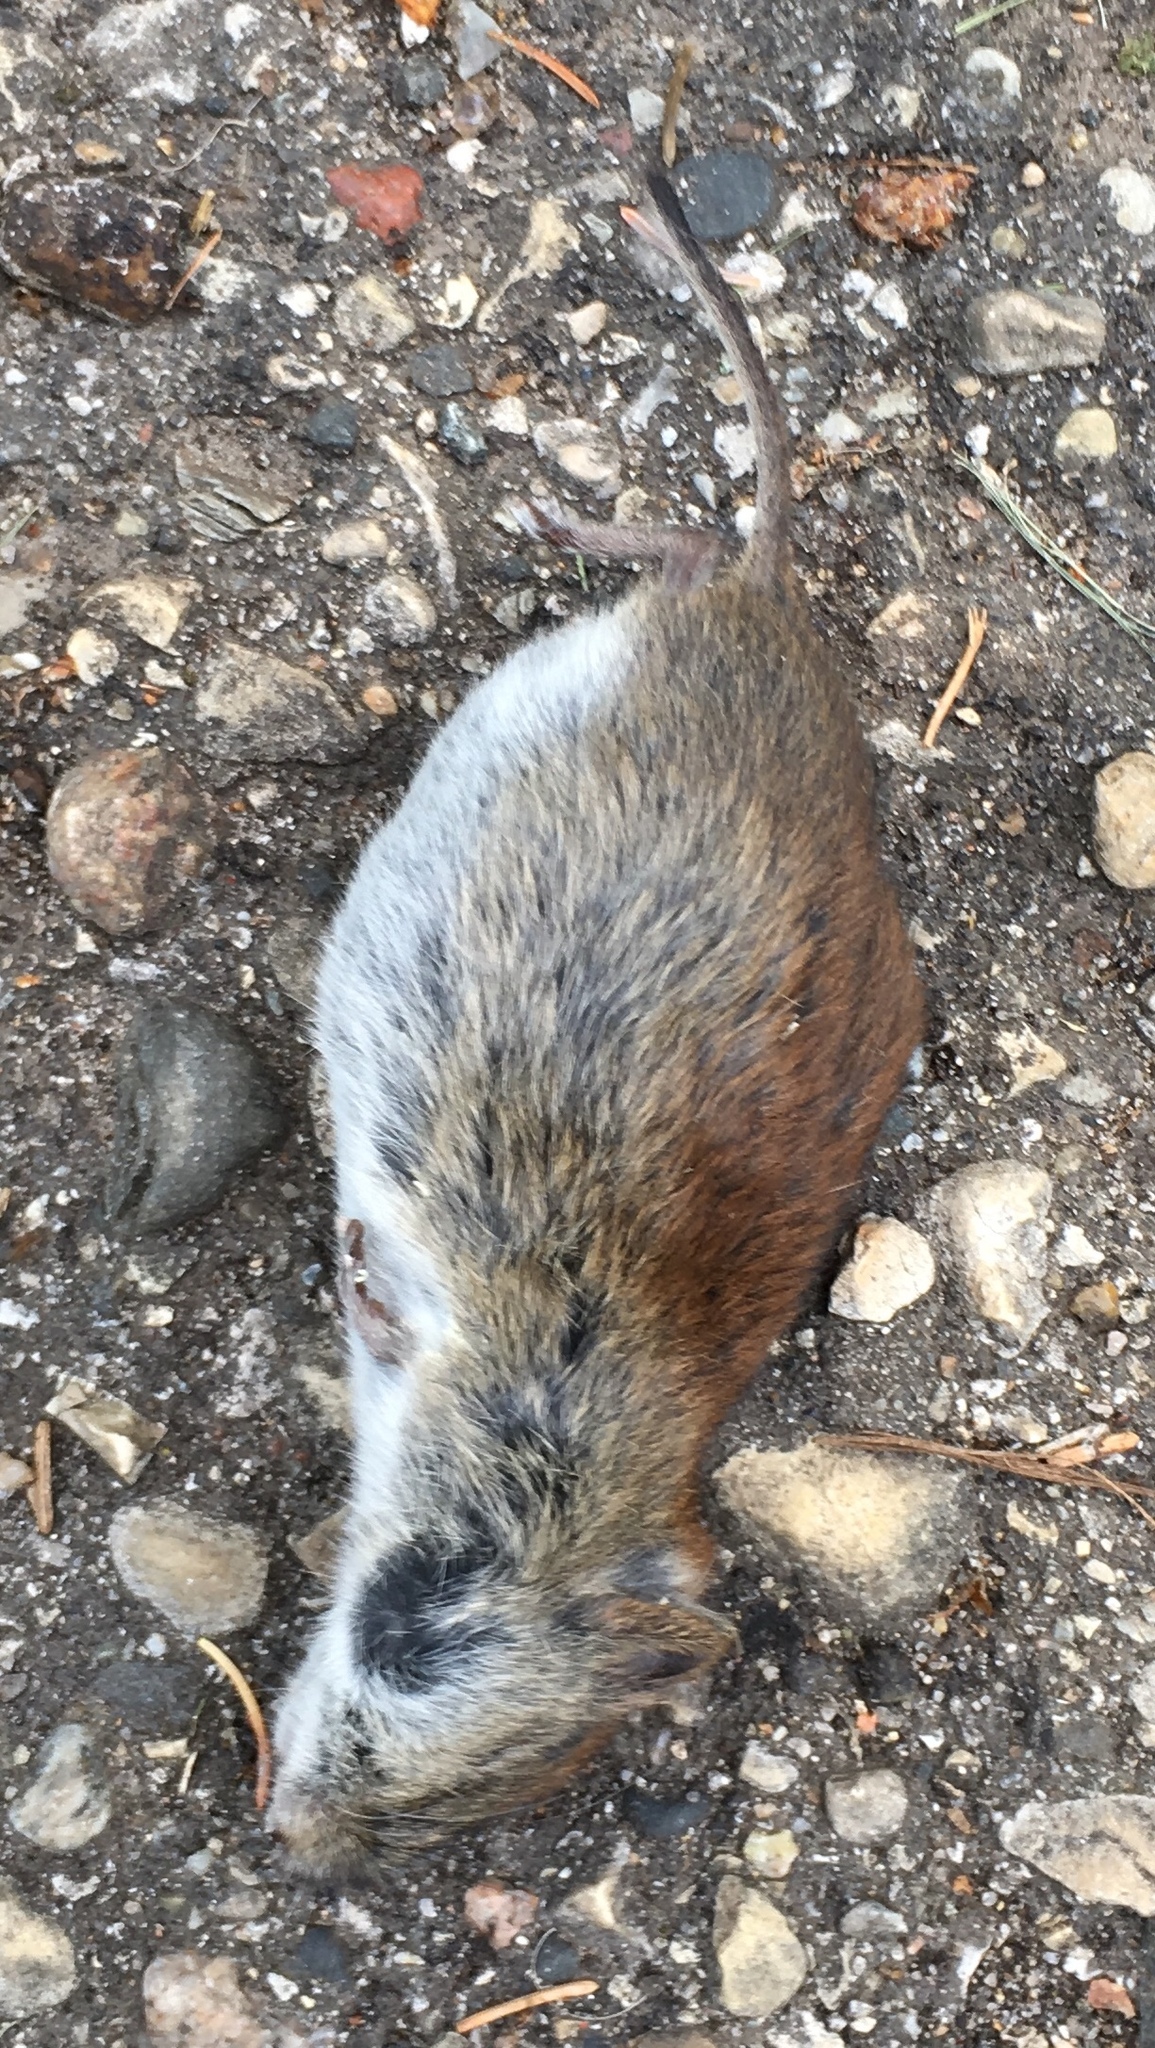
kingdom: Animalia
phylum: Chordata
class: Mammalia
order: Rodentia
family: Cricetidae
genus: Myodes
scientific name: Myodes gapperi
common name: Southern red-backed vole
